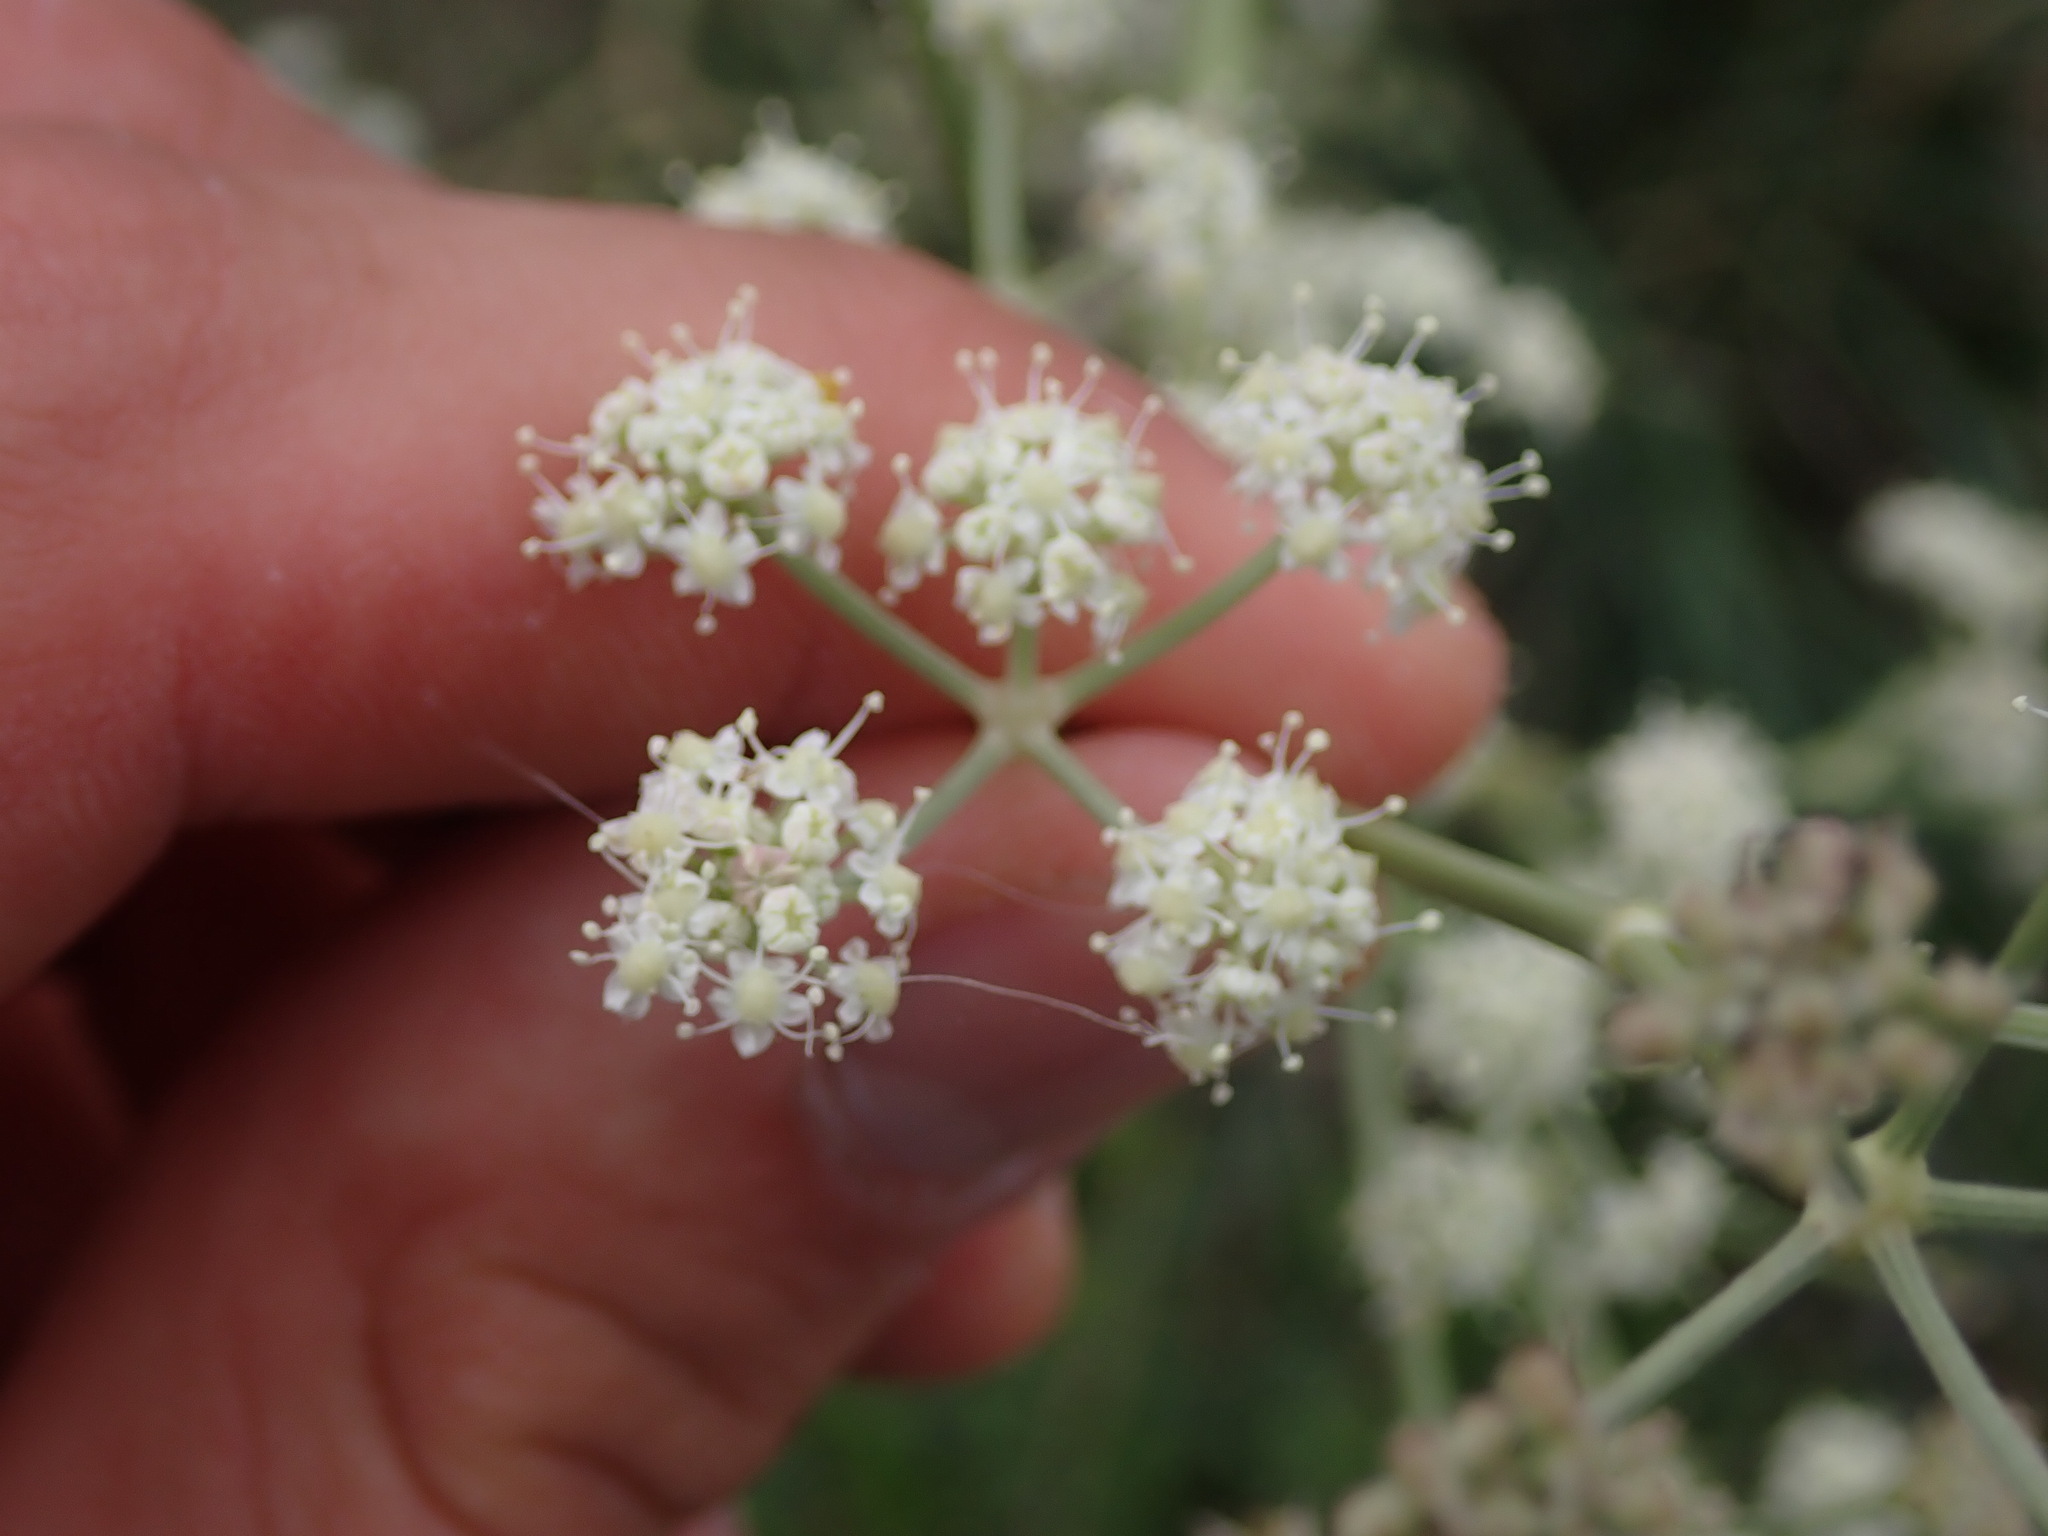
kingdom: Plantae
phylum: Tracheophyta
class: Magnoliopsida
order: Apiales
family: Apiaceae
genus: Seseli
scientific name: Seseli tortuosum
